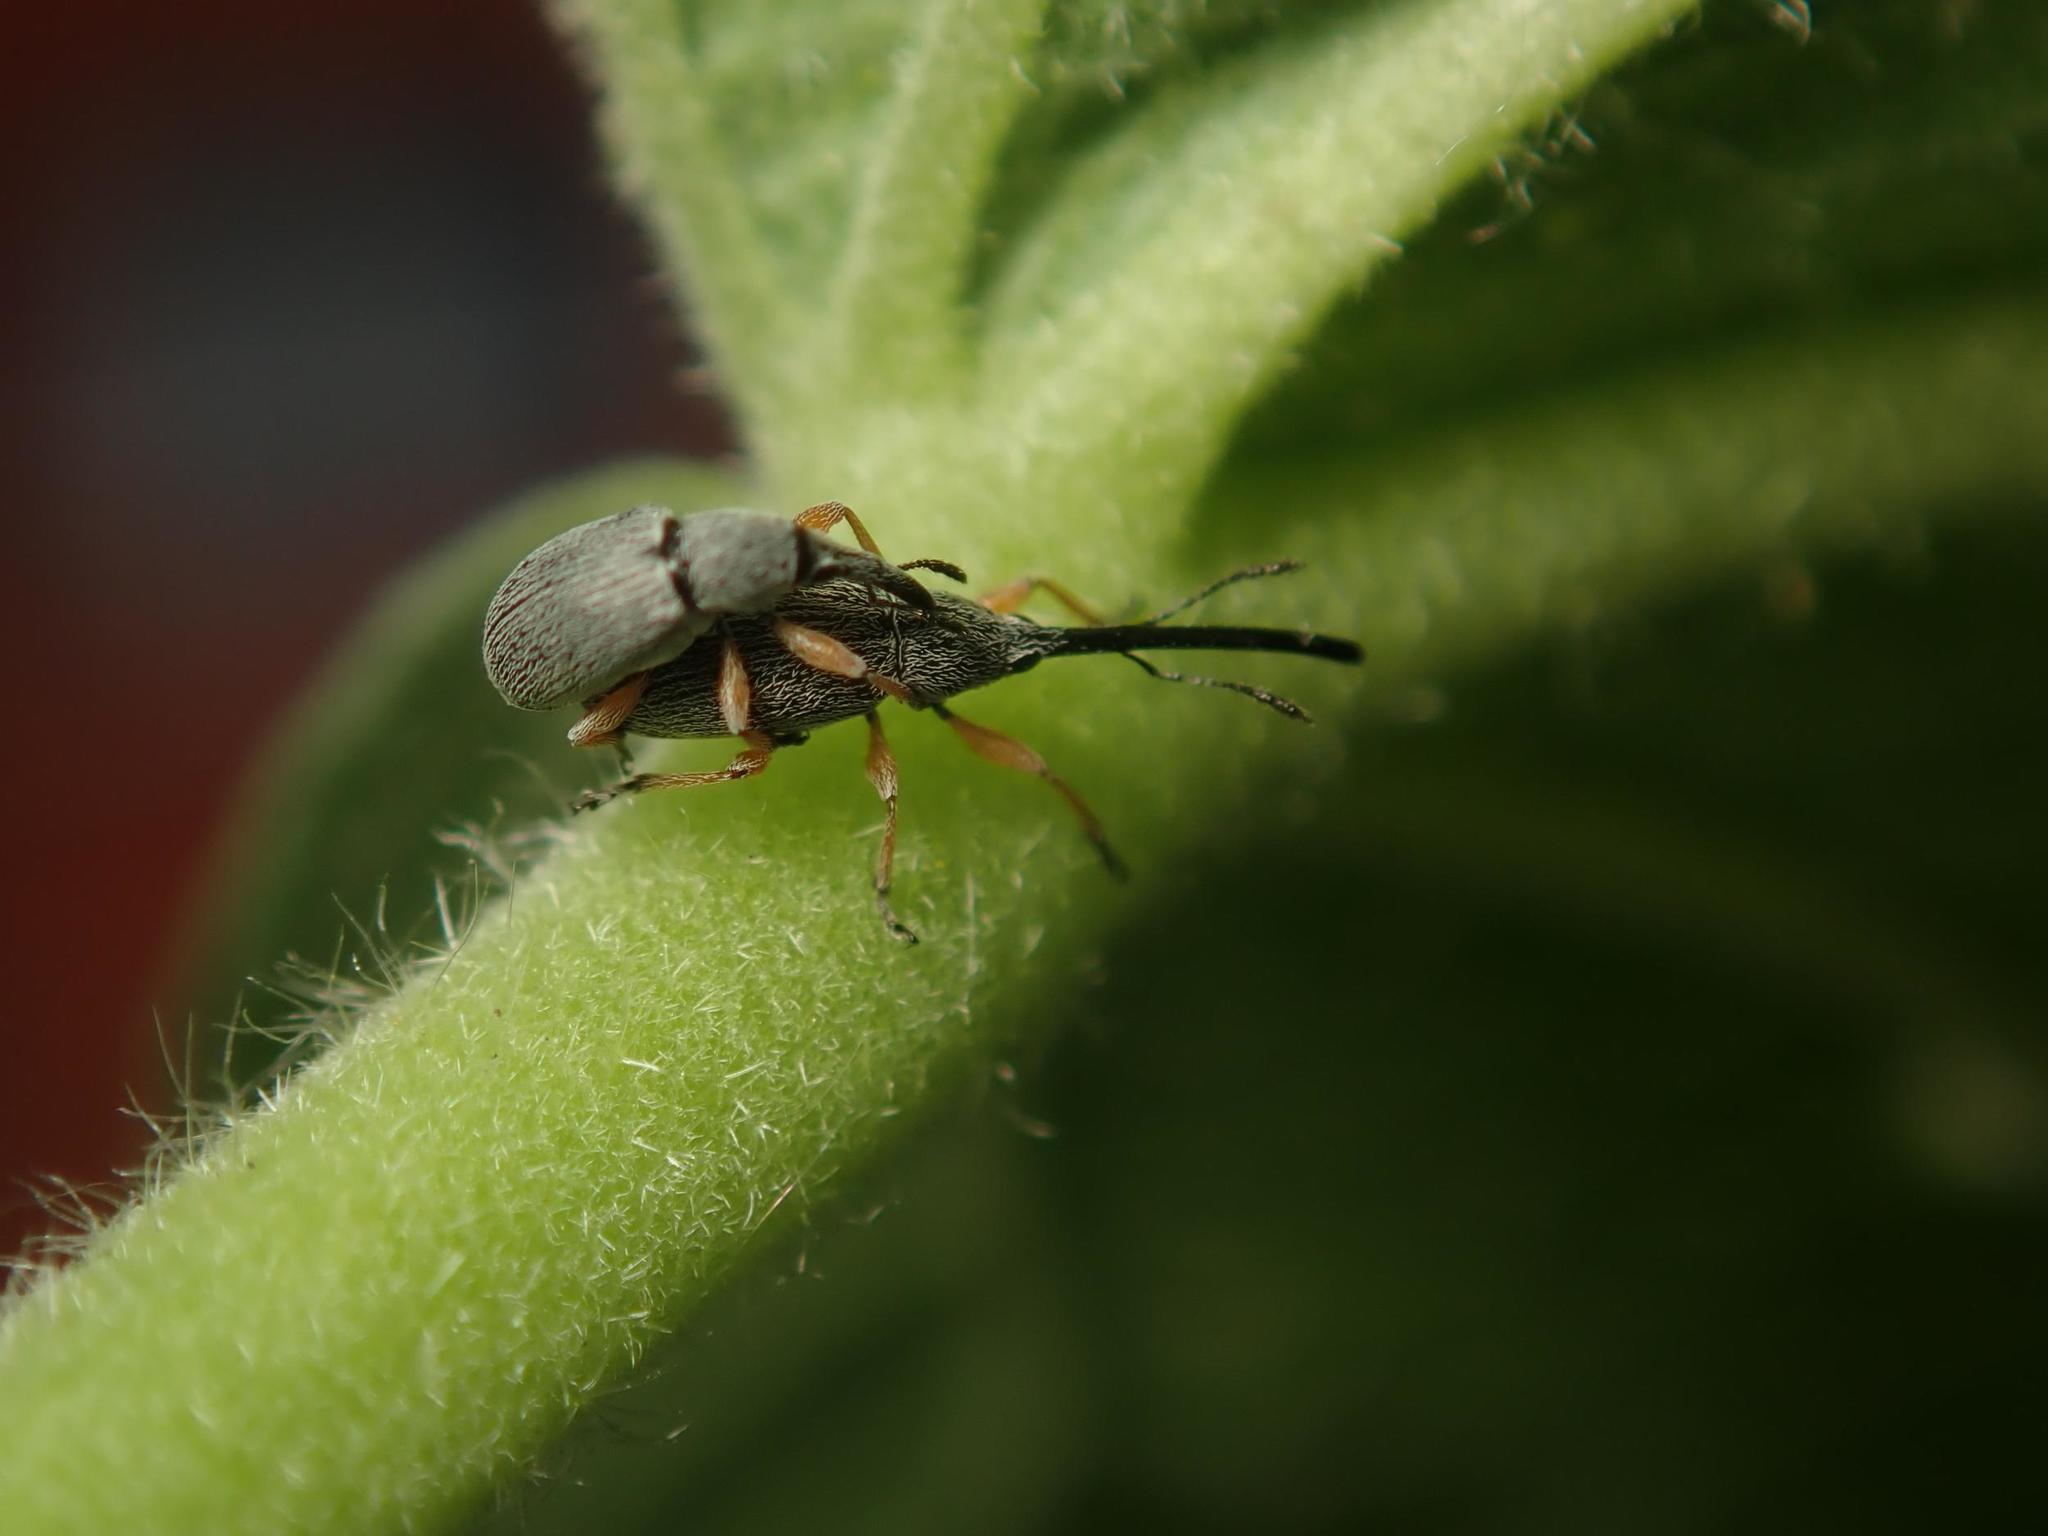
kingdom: Animalia
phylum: Arthropoda
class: Insecta
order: Coleoptera
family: Brentidae
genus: Rhopalapion
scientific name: Rhopalapion longirostre
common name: Hollyhock weevil
